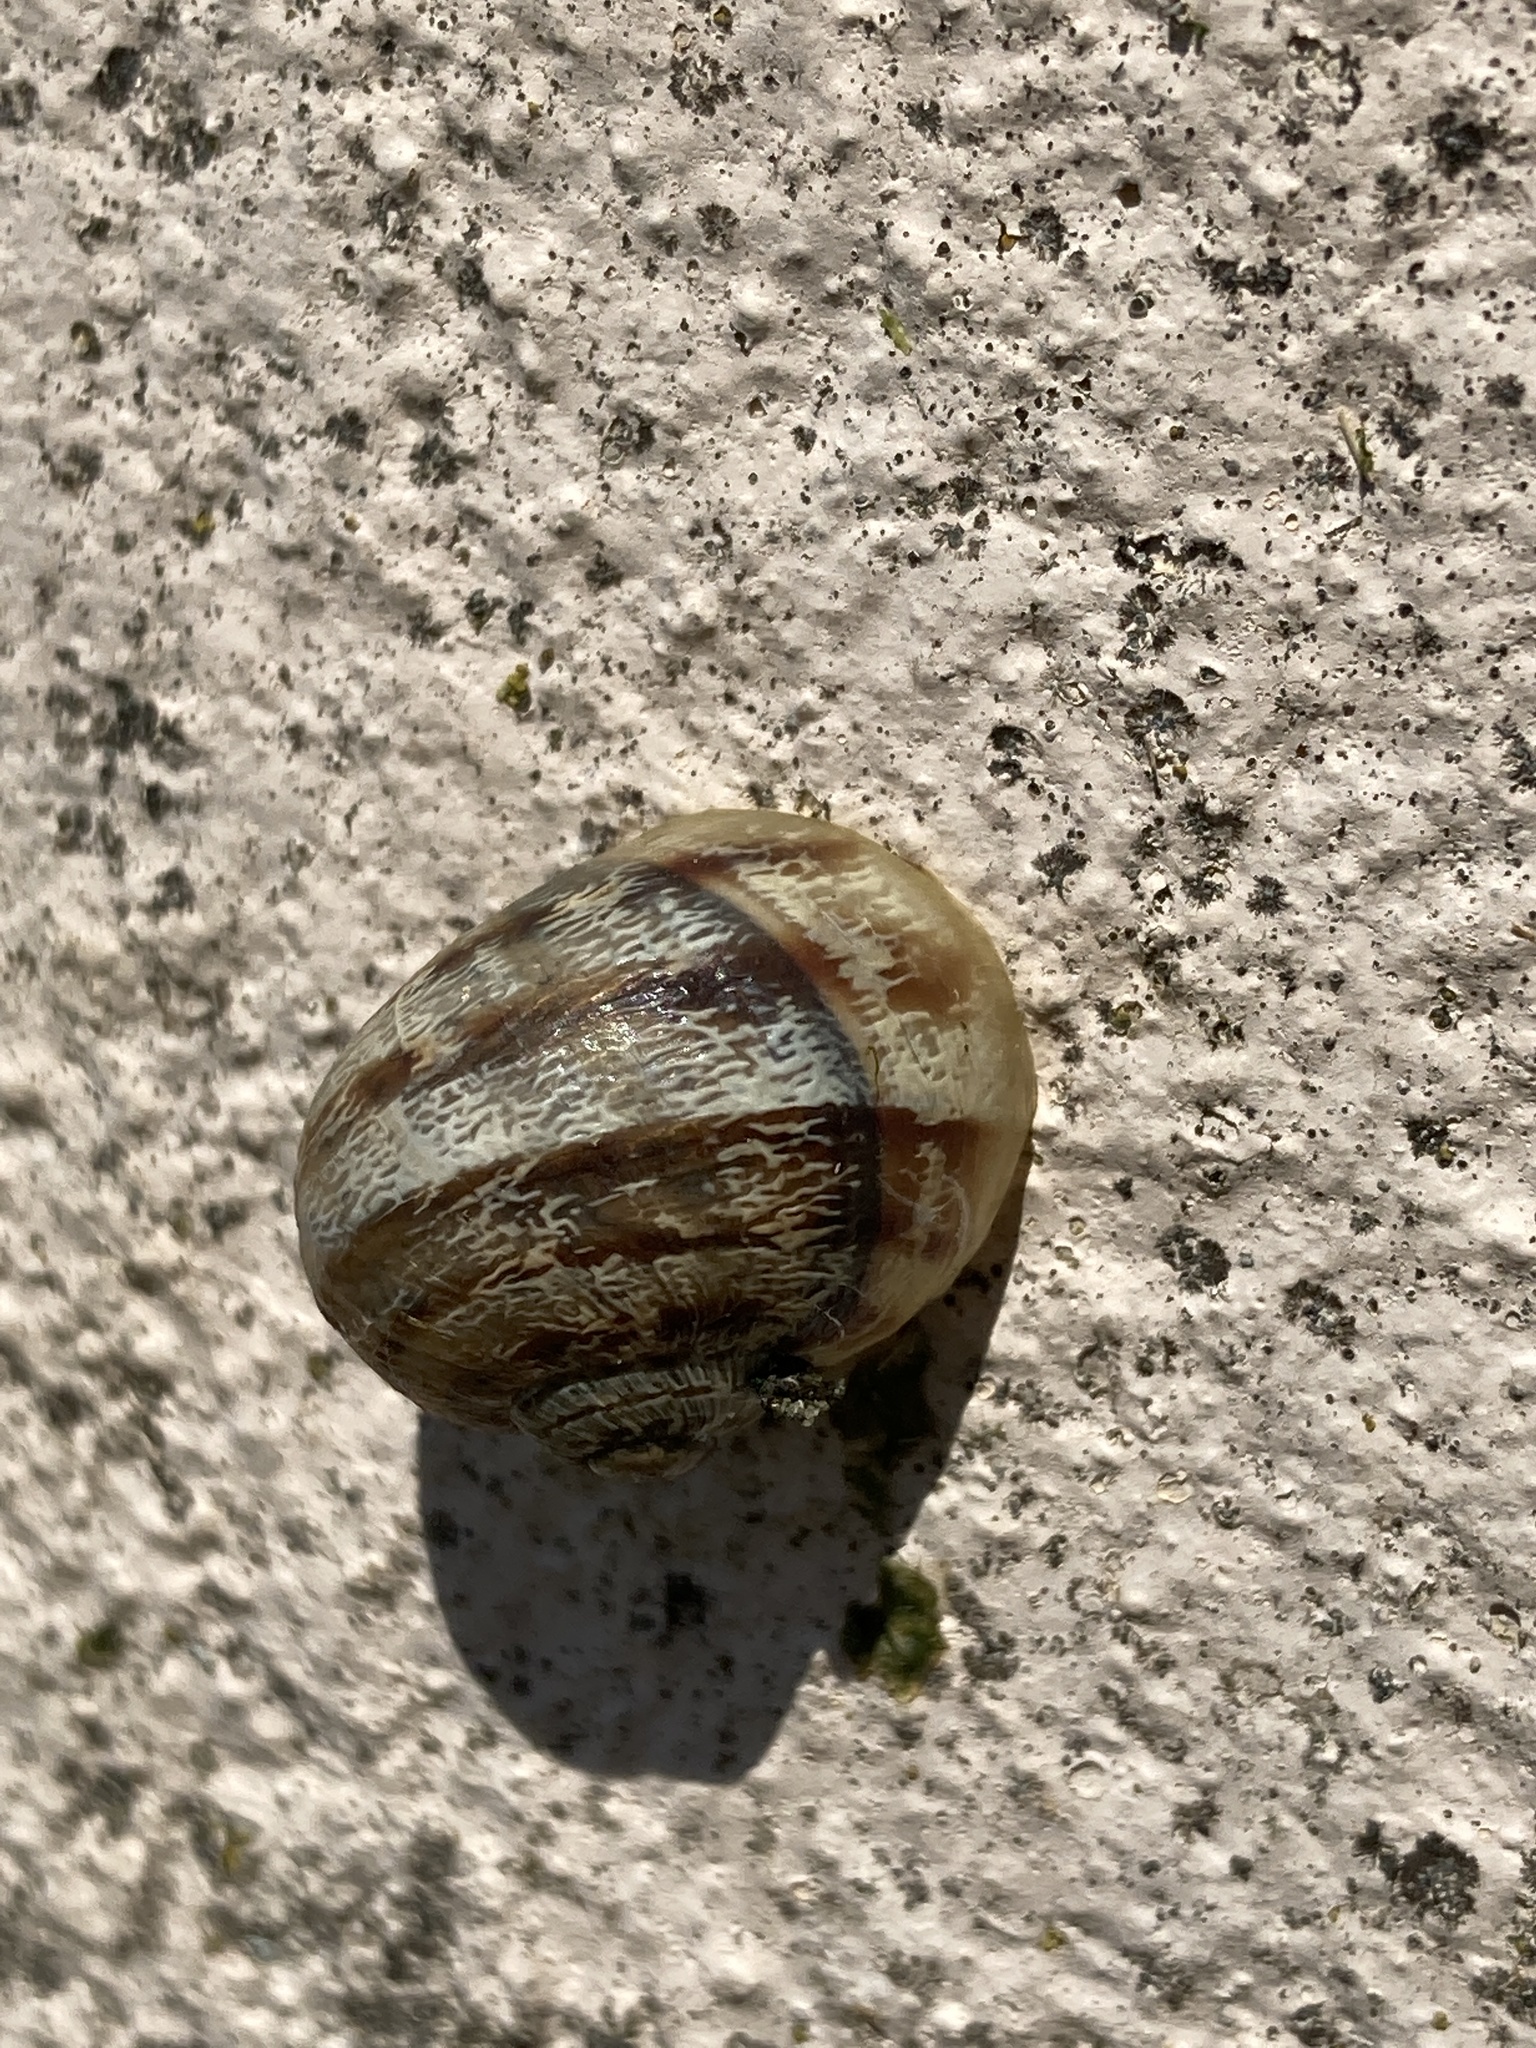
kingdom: Animalia
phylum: Mollusca
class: Gastropoda
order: Stylommatophora
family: Helicidae
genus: Cornu
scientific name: Cornu aspersum
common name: Brown garden snail
